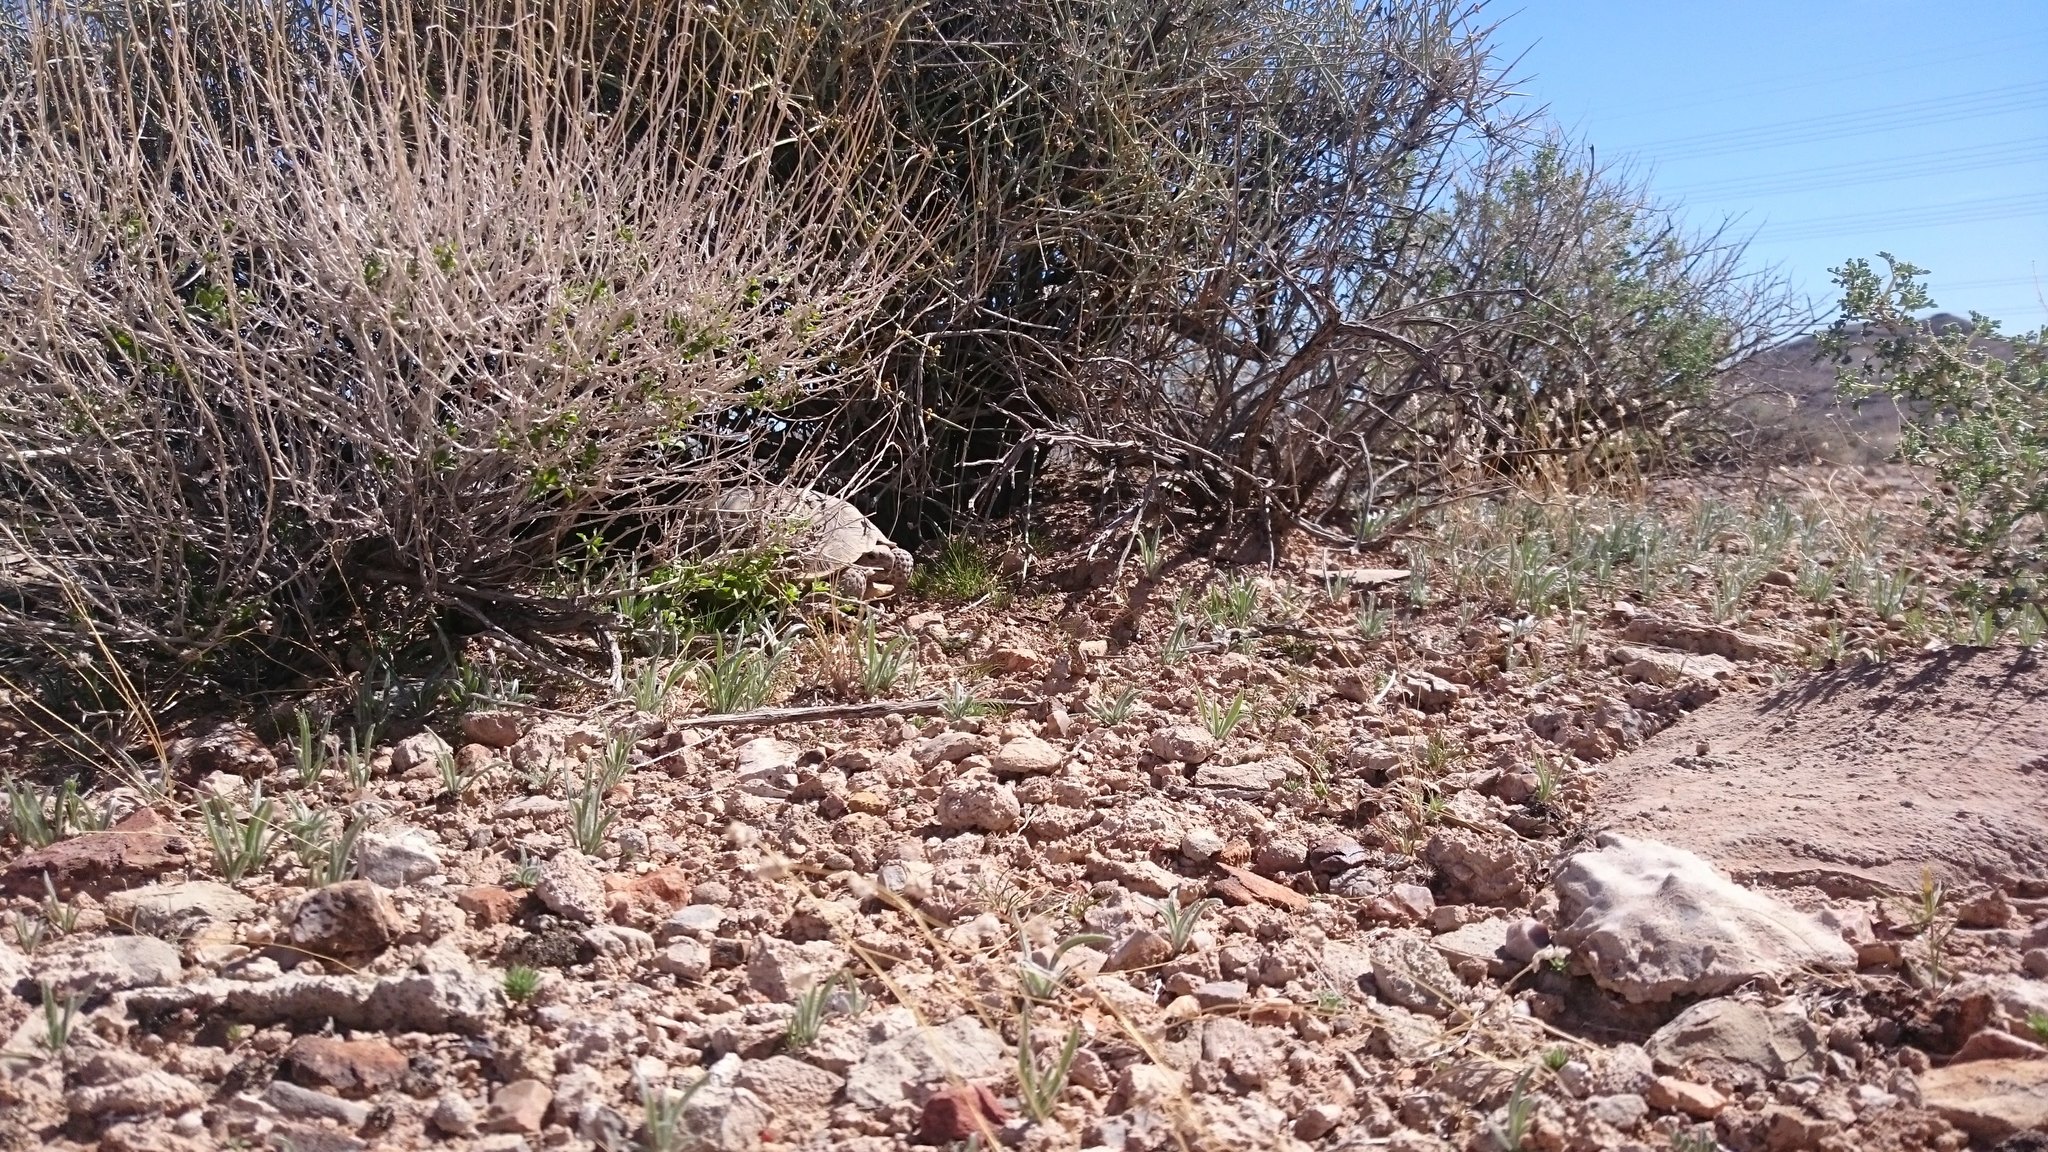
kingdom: Animalia
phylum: Chordata
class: Testudines
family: Testudinidae
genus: Gopherus
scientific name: Gopherus agassizii
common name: Mojave desert tortoise
